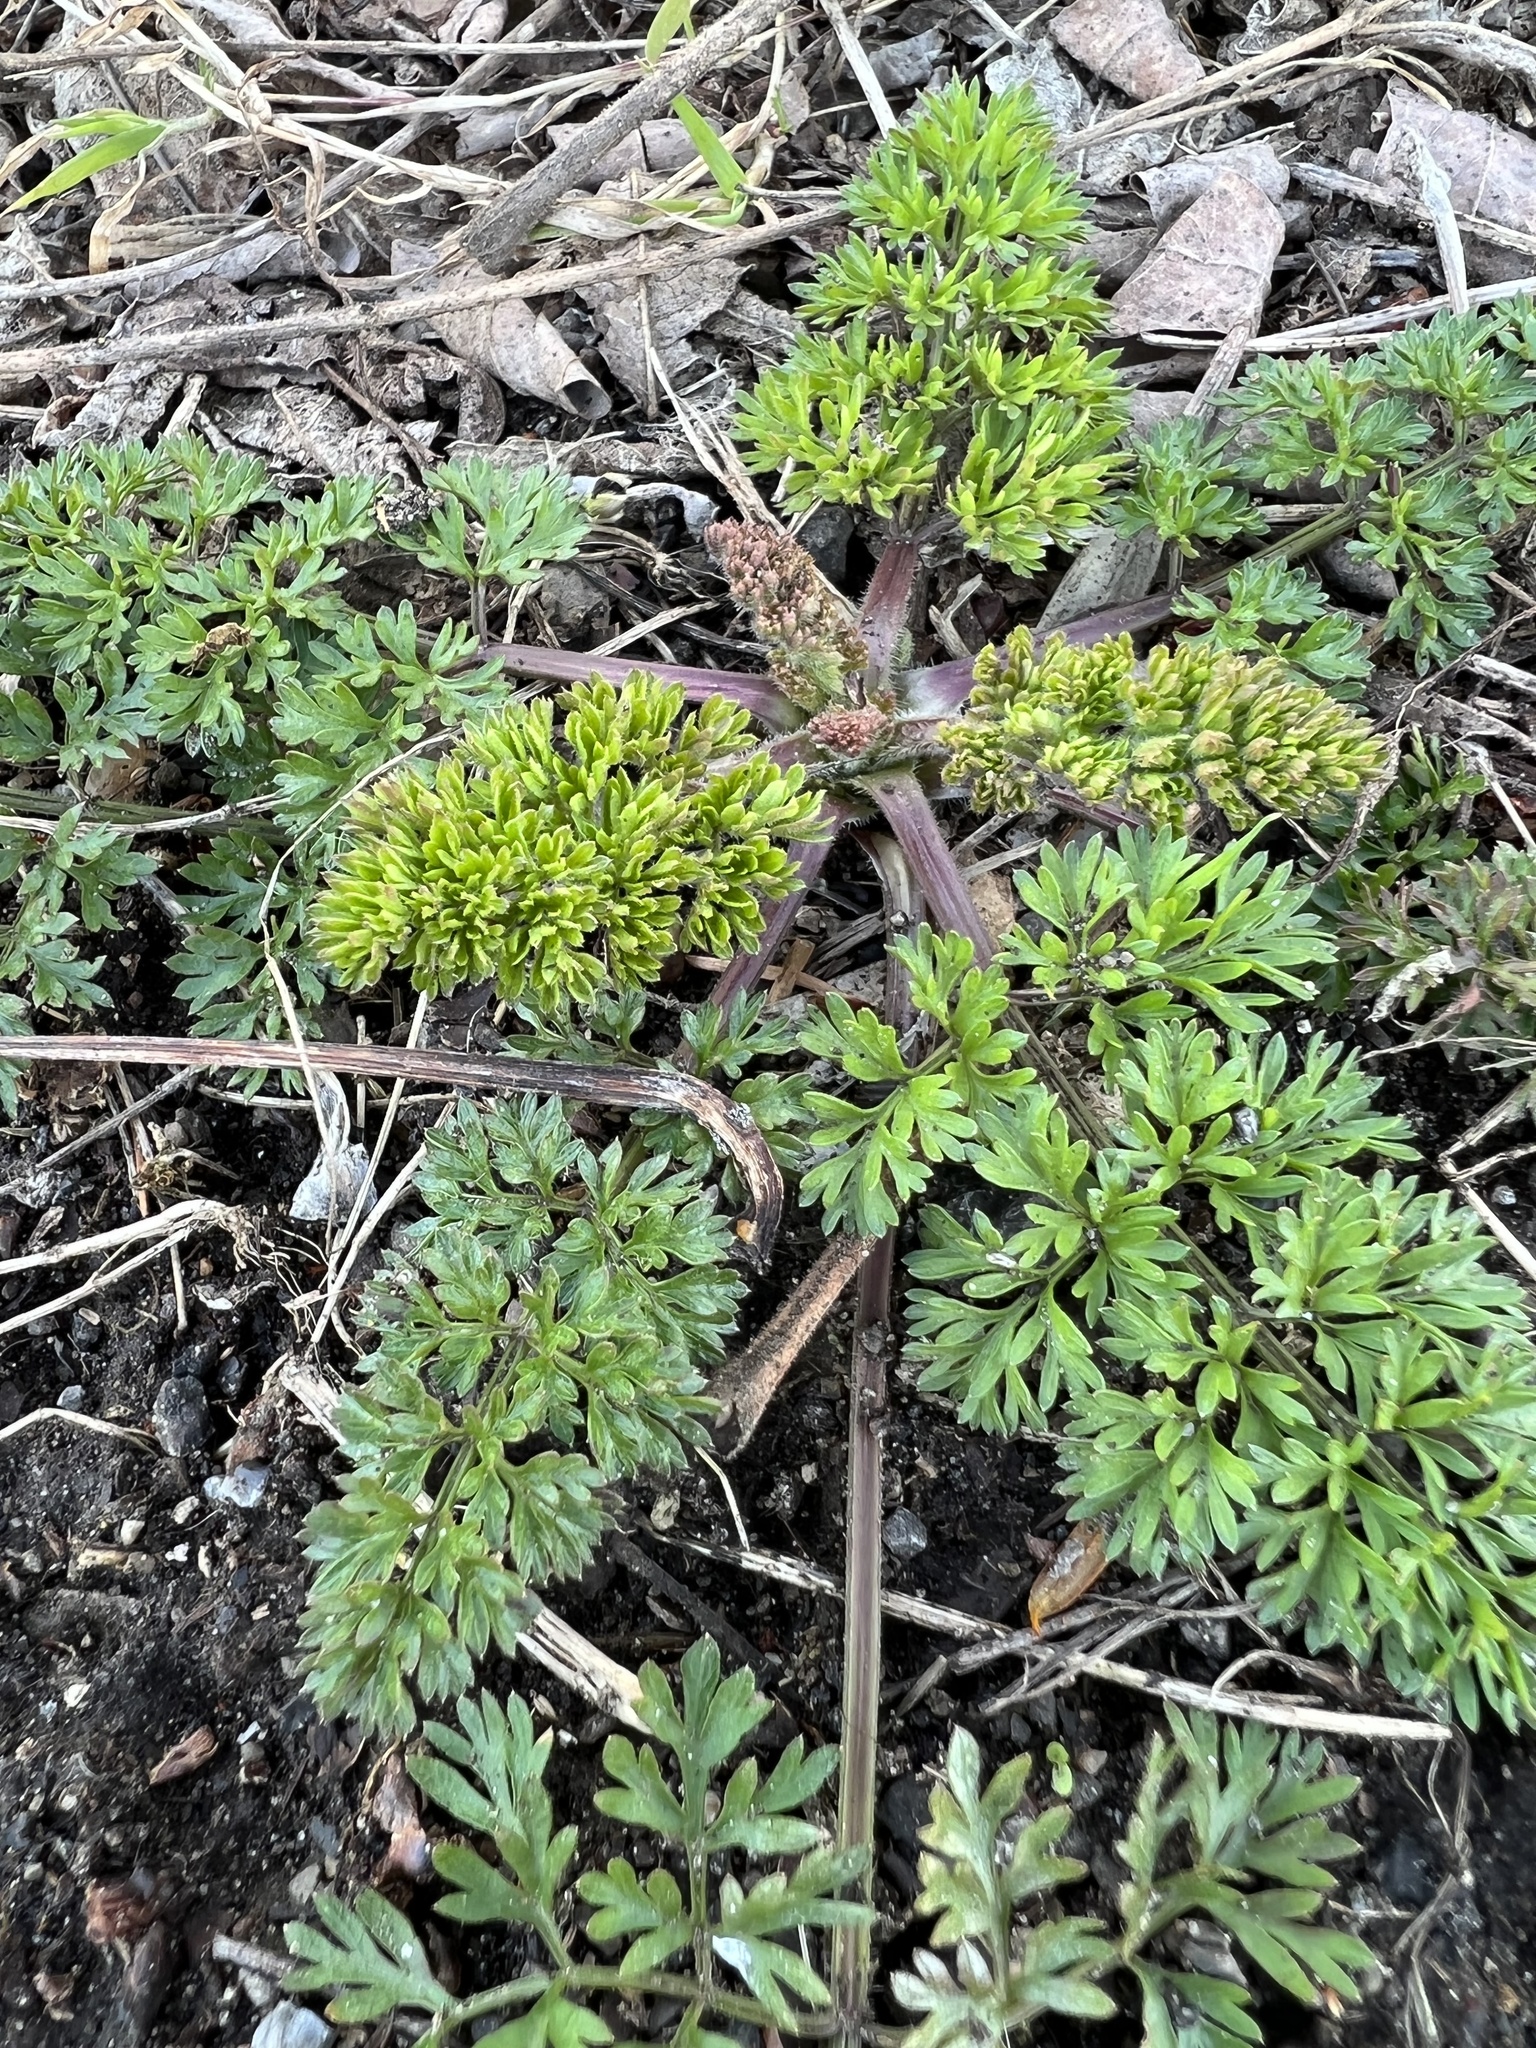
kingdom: Plantae
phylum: Tracheophyta
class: Magnoliopsida
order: Apiales
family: Apiaceae
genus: Daucus
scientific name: Daucus carota
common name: Wild carrot
